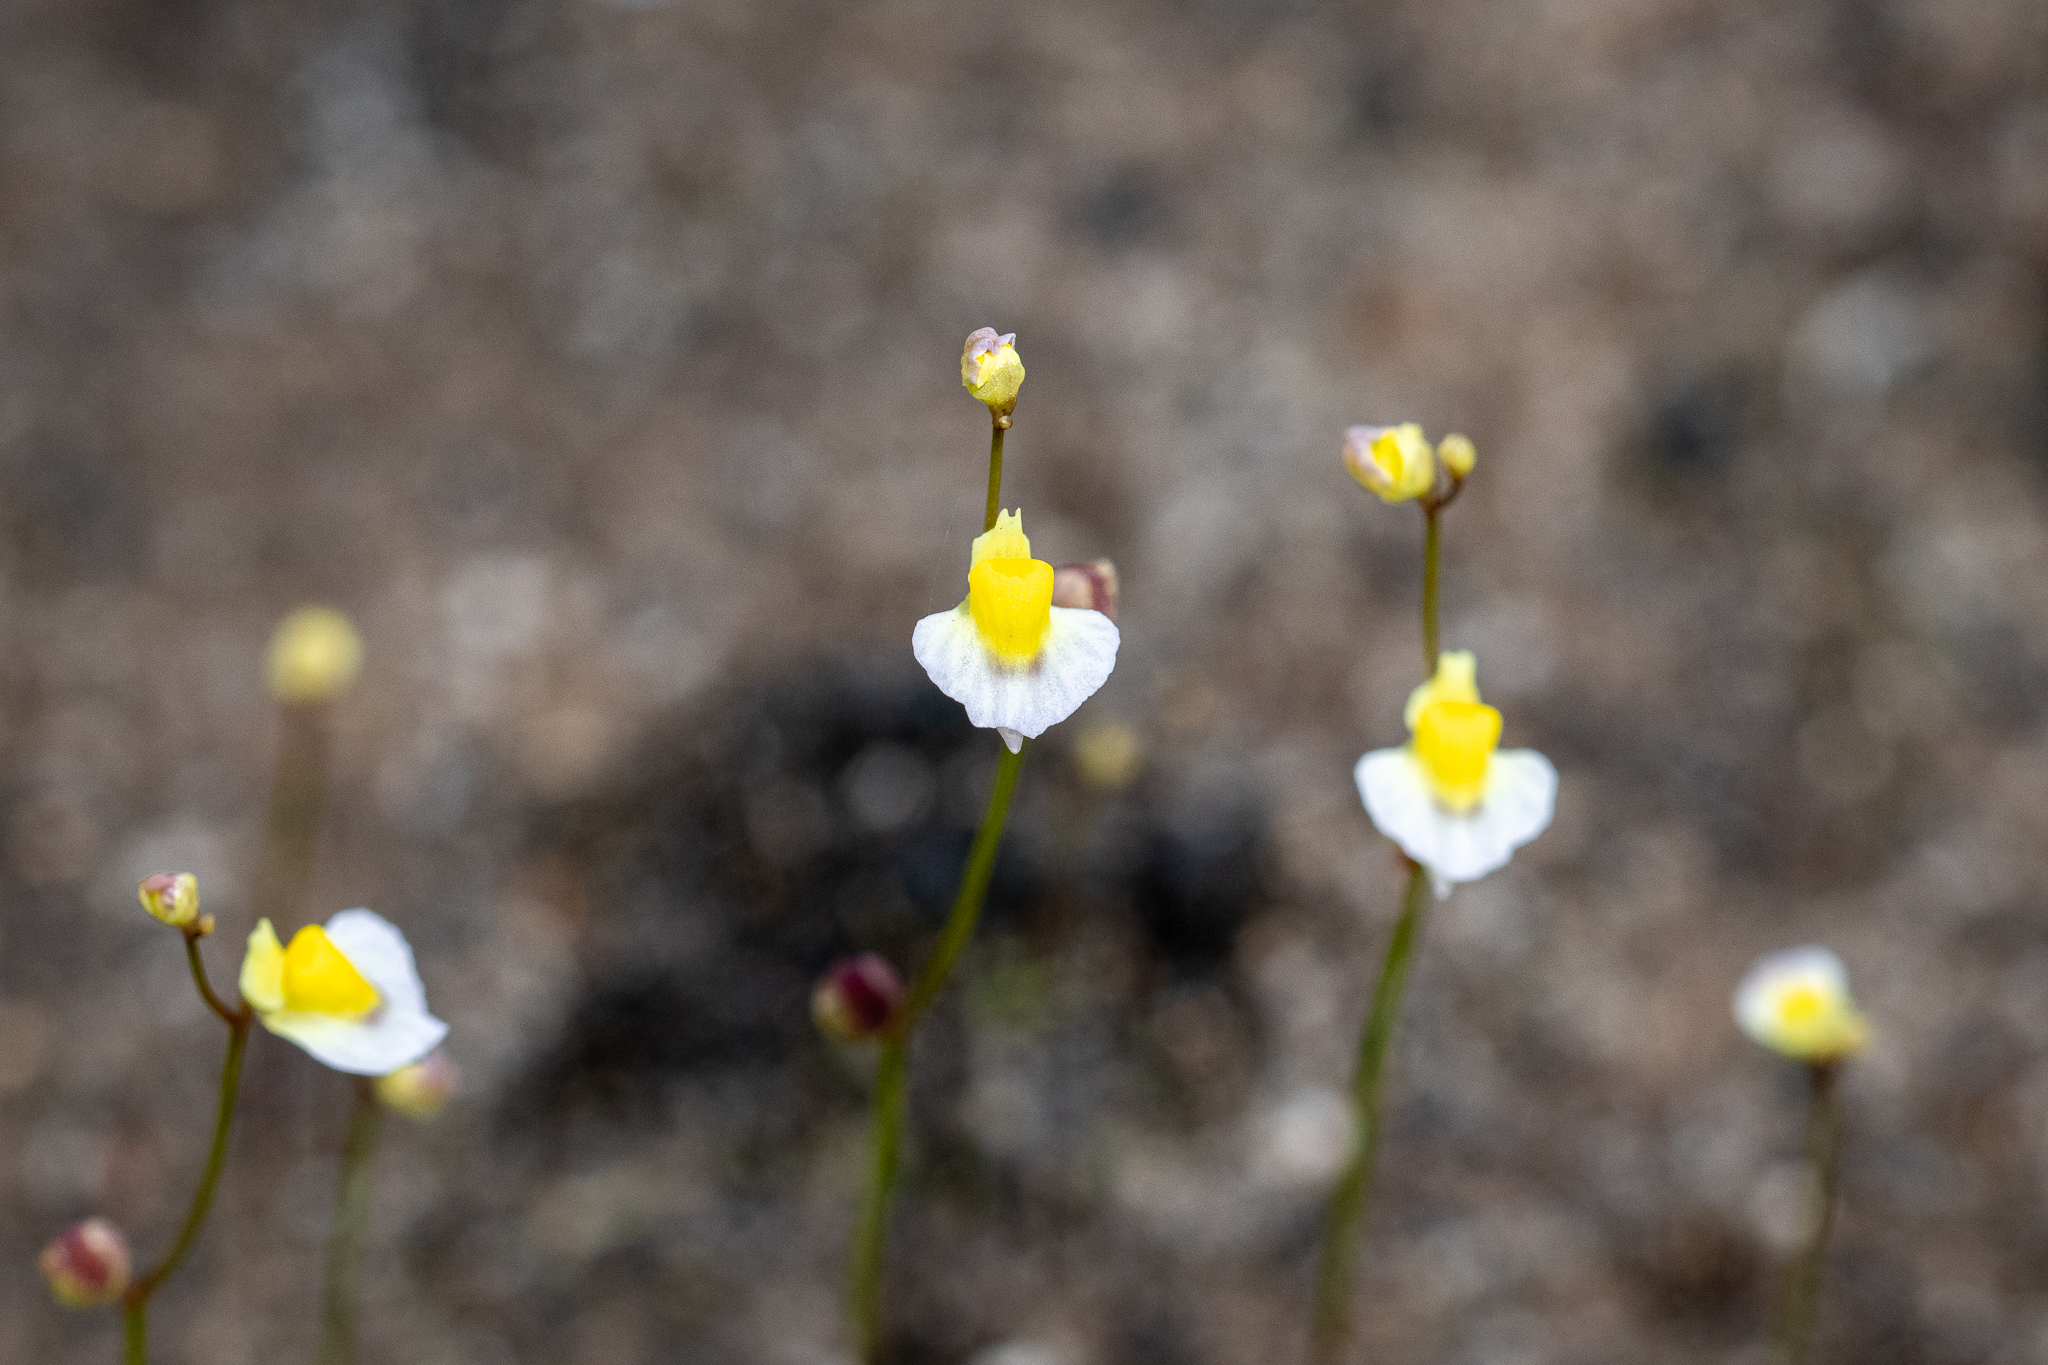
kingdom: Plantae
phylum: Tracheophyta
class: Magnoliopsida
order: Lamiales
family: Lentibulariaceae
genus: Utricularia
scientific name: Utricularia bisquamata
